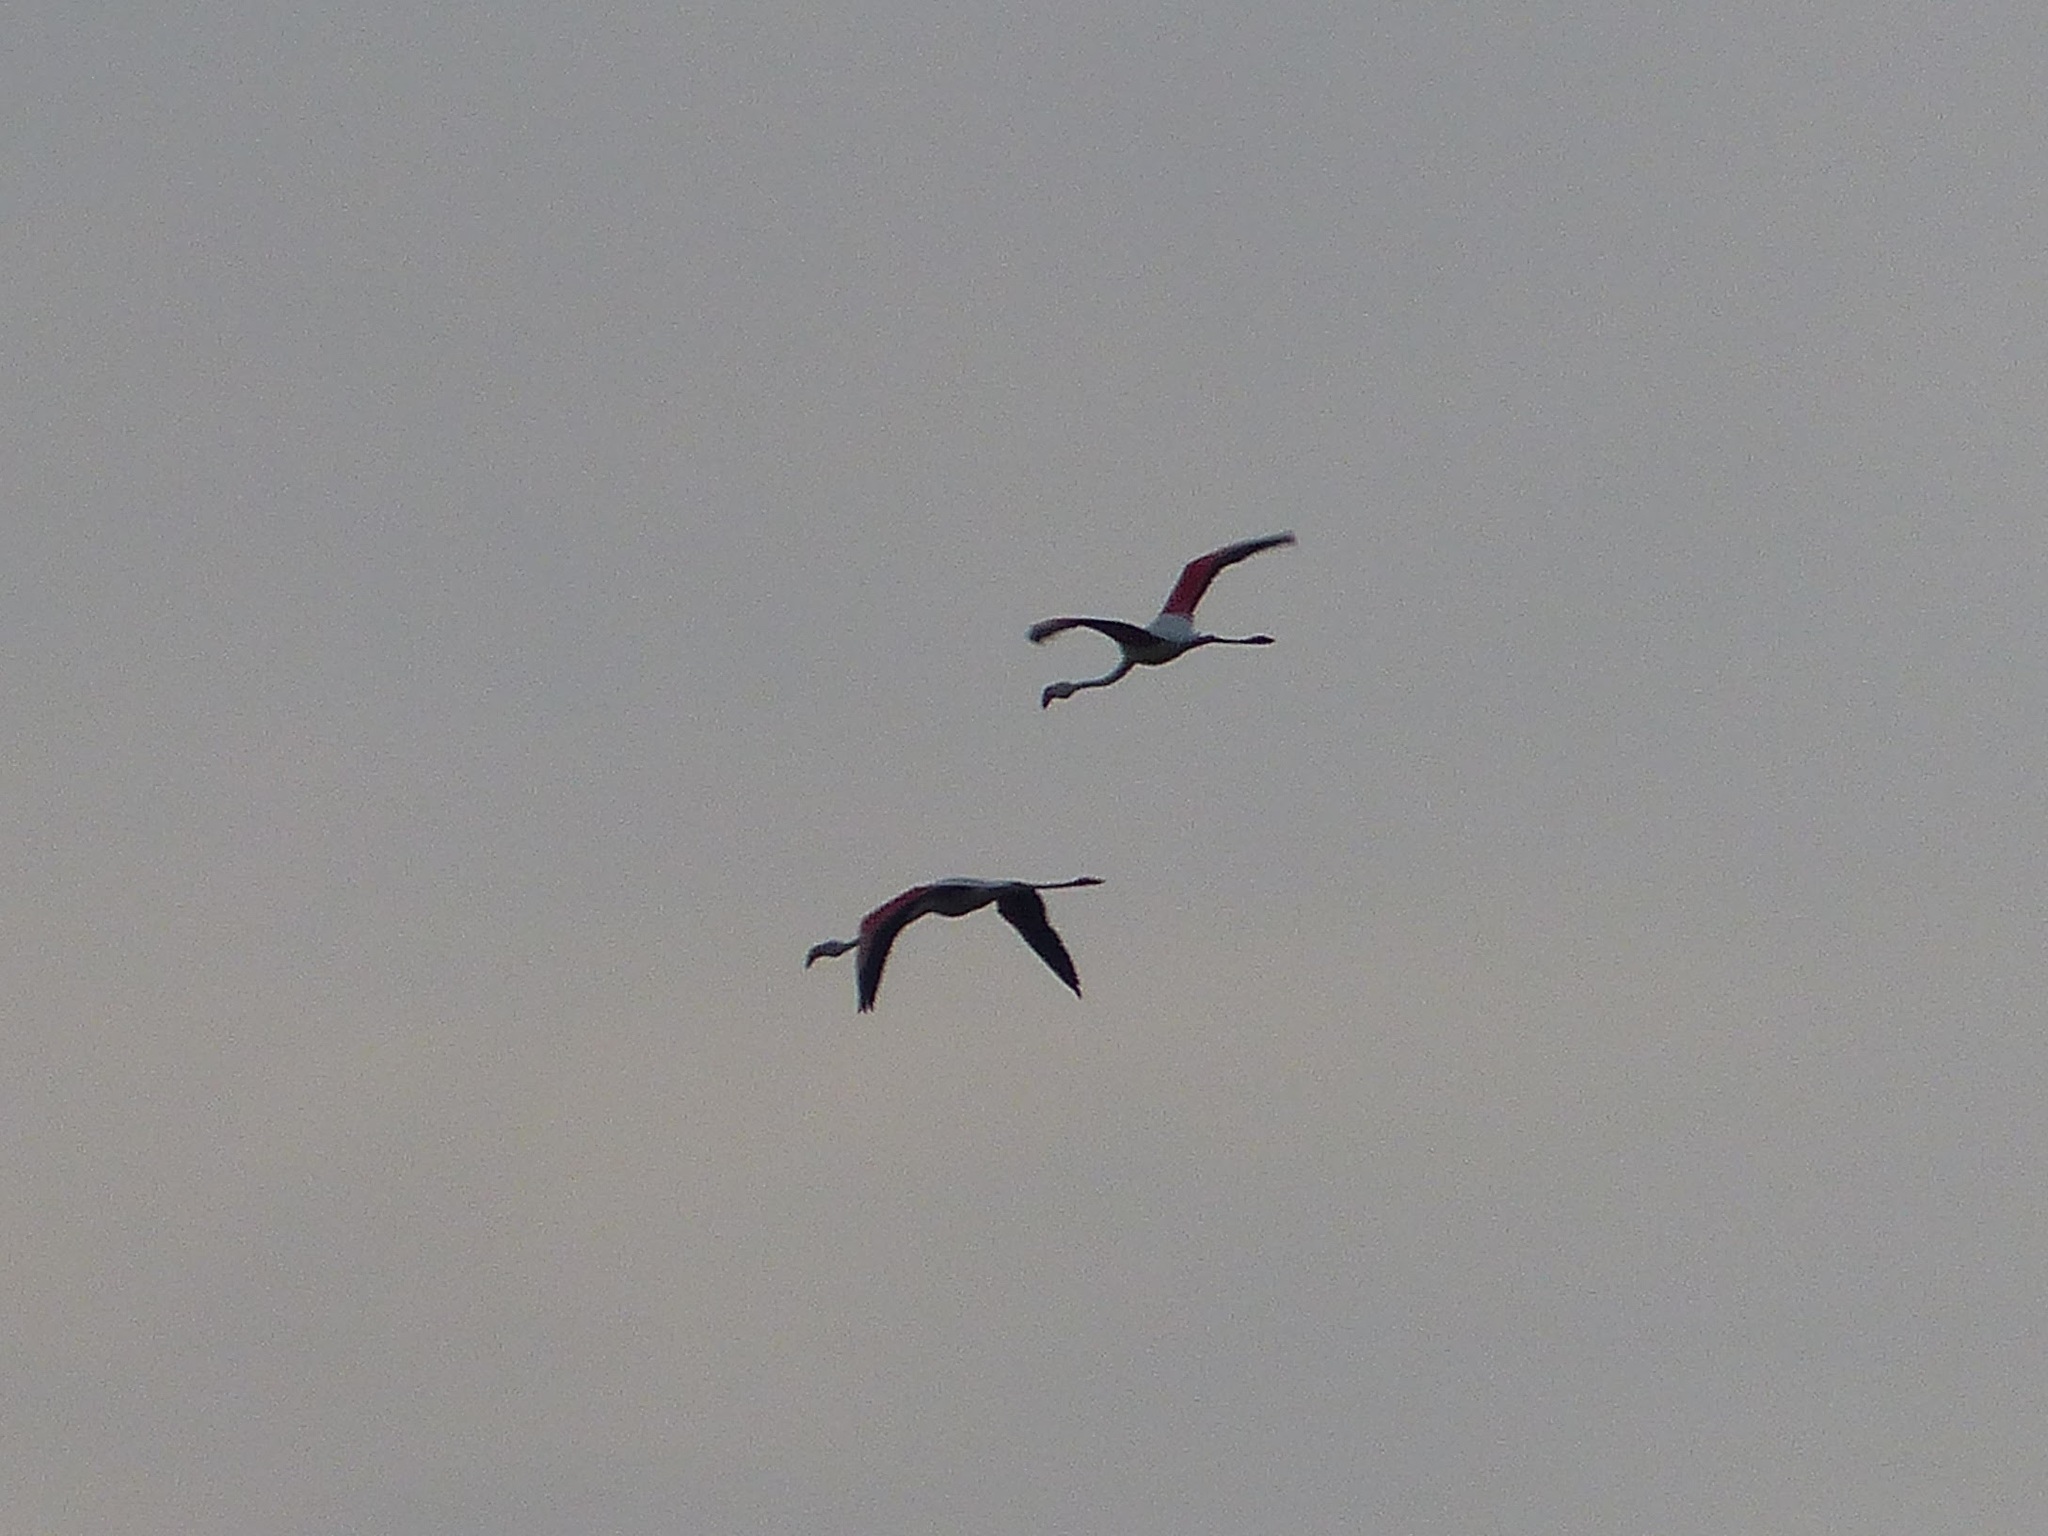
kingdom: Animalia
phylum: Chordata
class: Aves
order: Phoenicopteriformes
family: Phoenicopteridae
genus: Phoenicopterus
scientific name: Phoenicopterus roseus
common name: Greater flamingo
